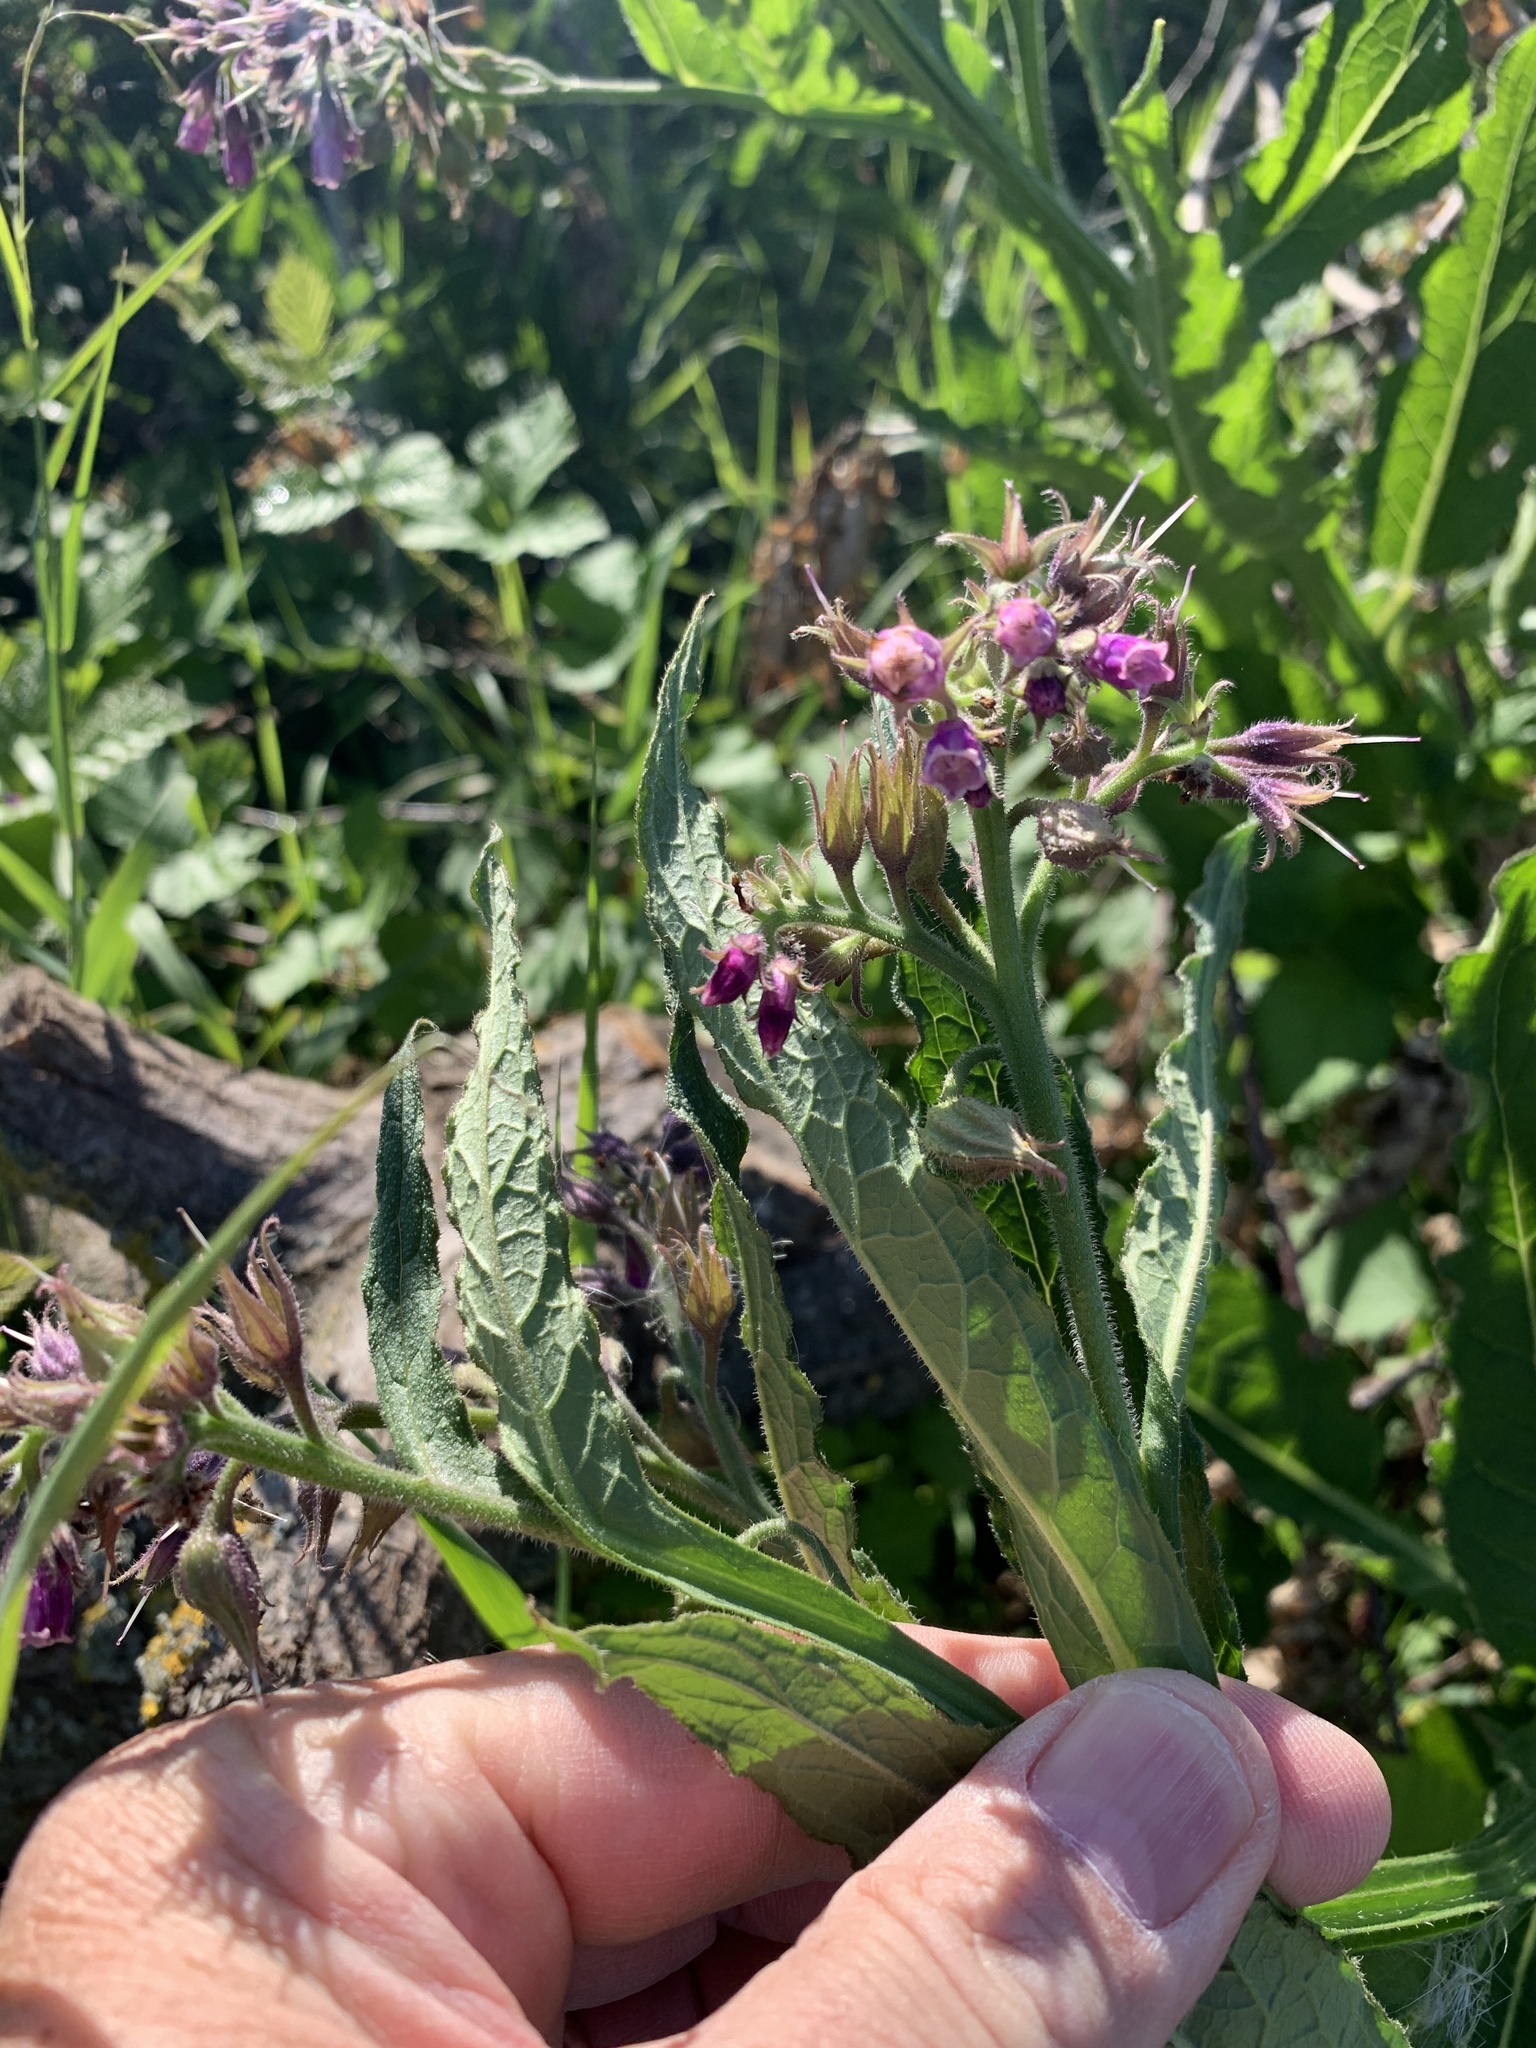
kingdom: Plantae
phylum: Tracheophyta
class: Magnoliopsida
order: Boraginales
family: Boraginaceae
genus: Symphytum
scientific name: Symphytum officinale
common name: Common comfrey
